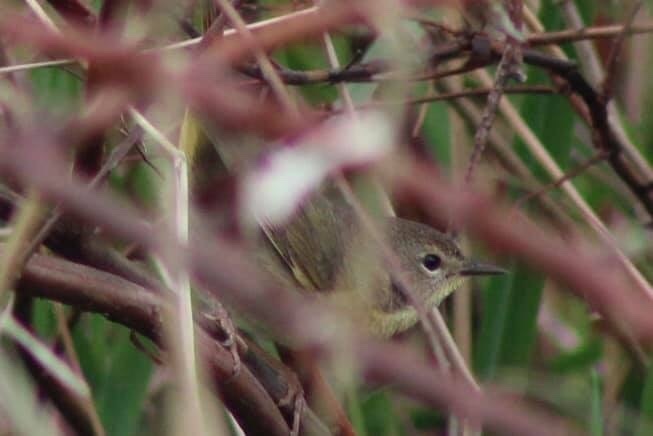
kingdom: Animalia
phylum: Chordata
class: Aves
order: Passeriformes
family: Parulidae
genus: Geothlypis
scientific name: Geothlypis trichas
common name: Common yellowthroat
